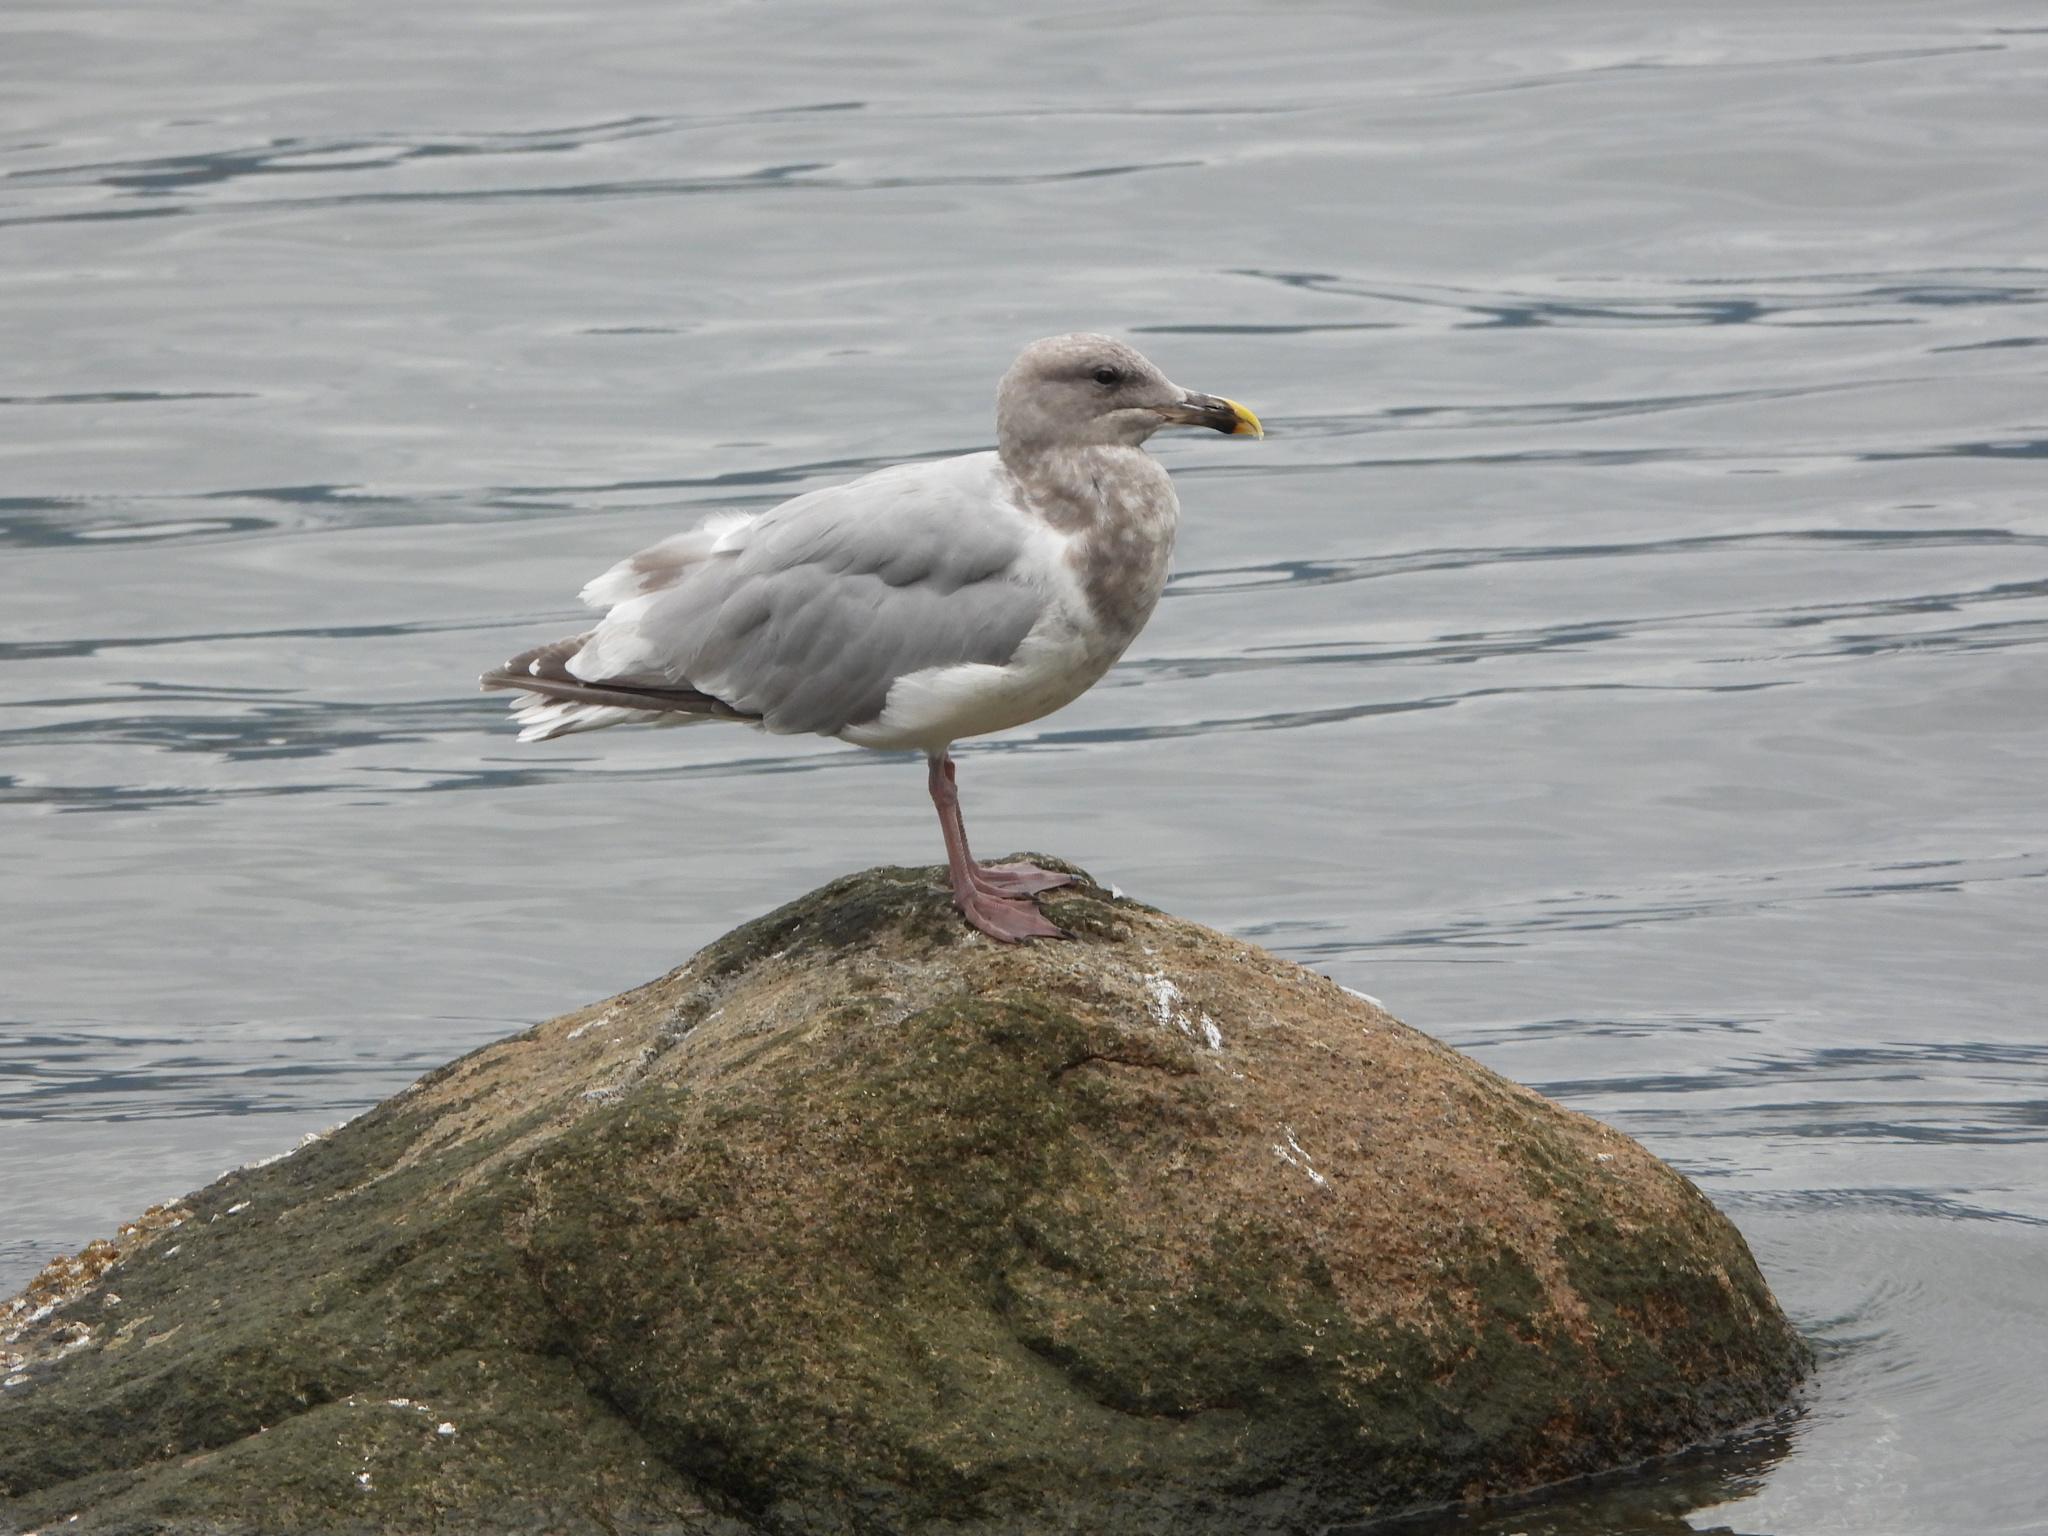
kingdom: Animalia
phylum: Chordata
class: Aves
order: Charadriiformes
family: Laridae
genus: Larus
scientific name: Larus
